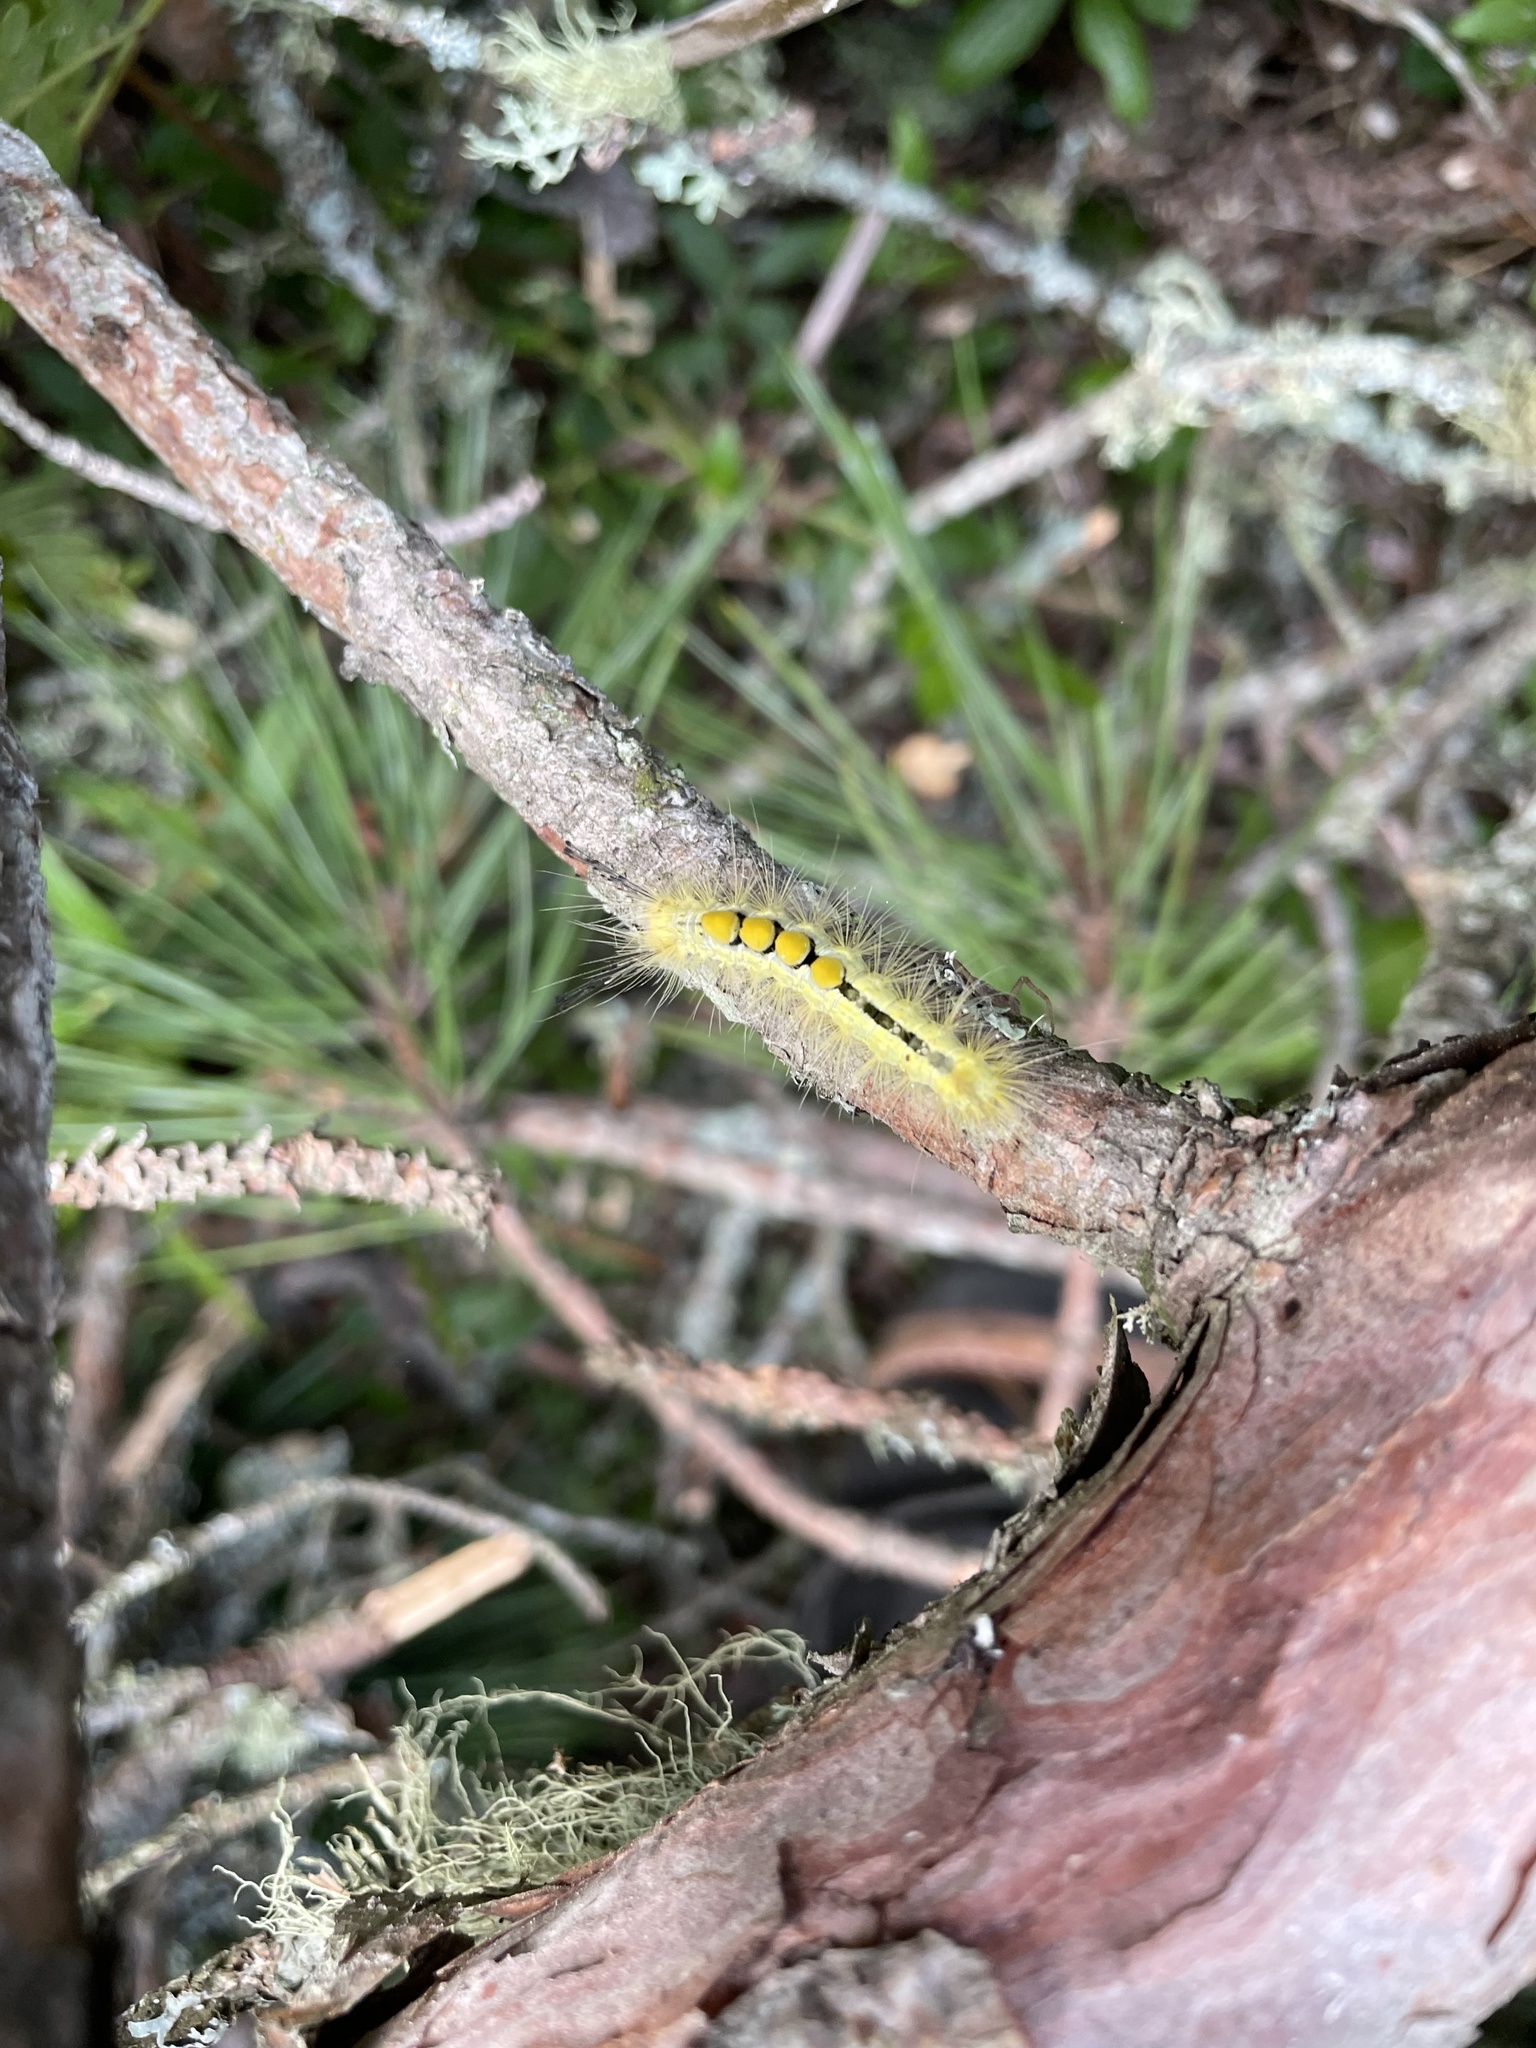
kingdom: Animalia
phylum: Arthropoda
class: Insecta
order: Lepidoptera
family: Erebidae
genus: Orgyia
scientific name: Orgyia definita
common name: Definite tussock moth
